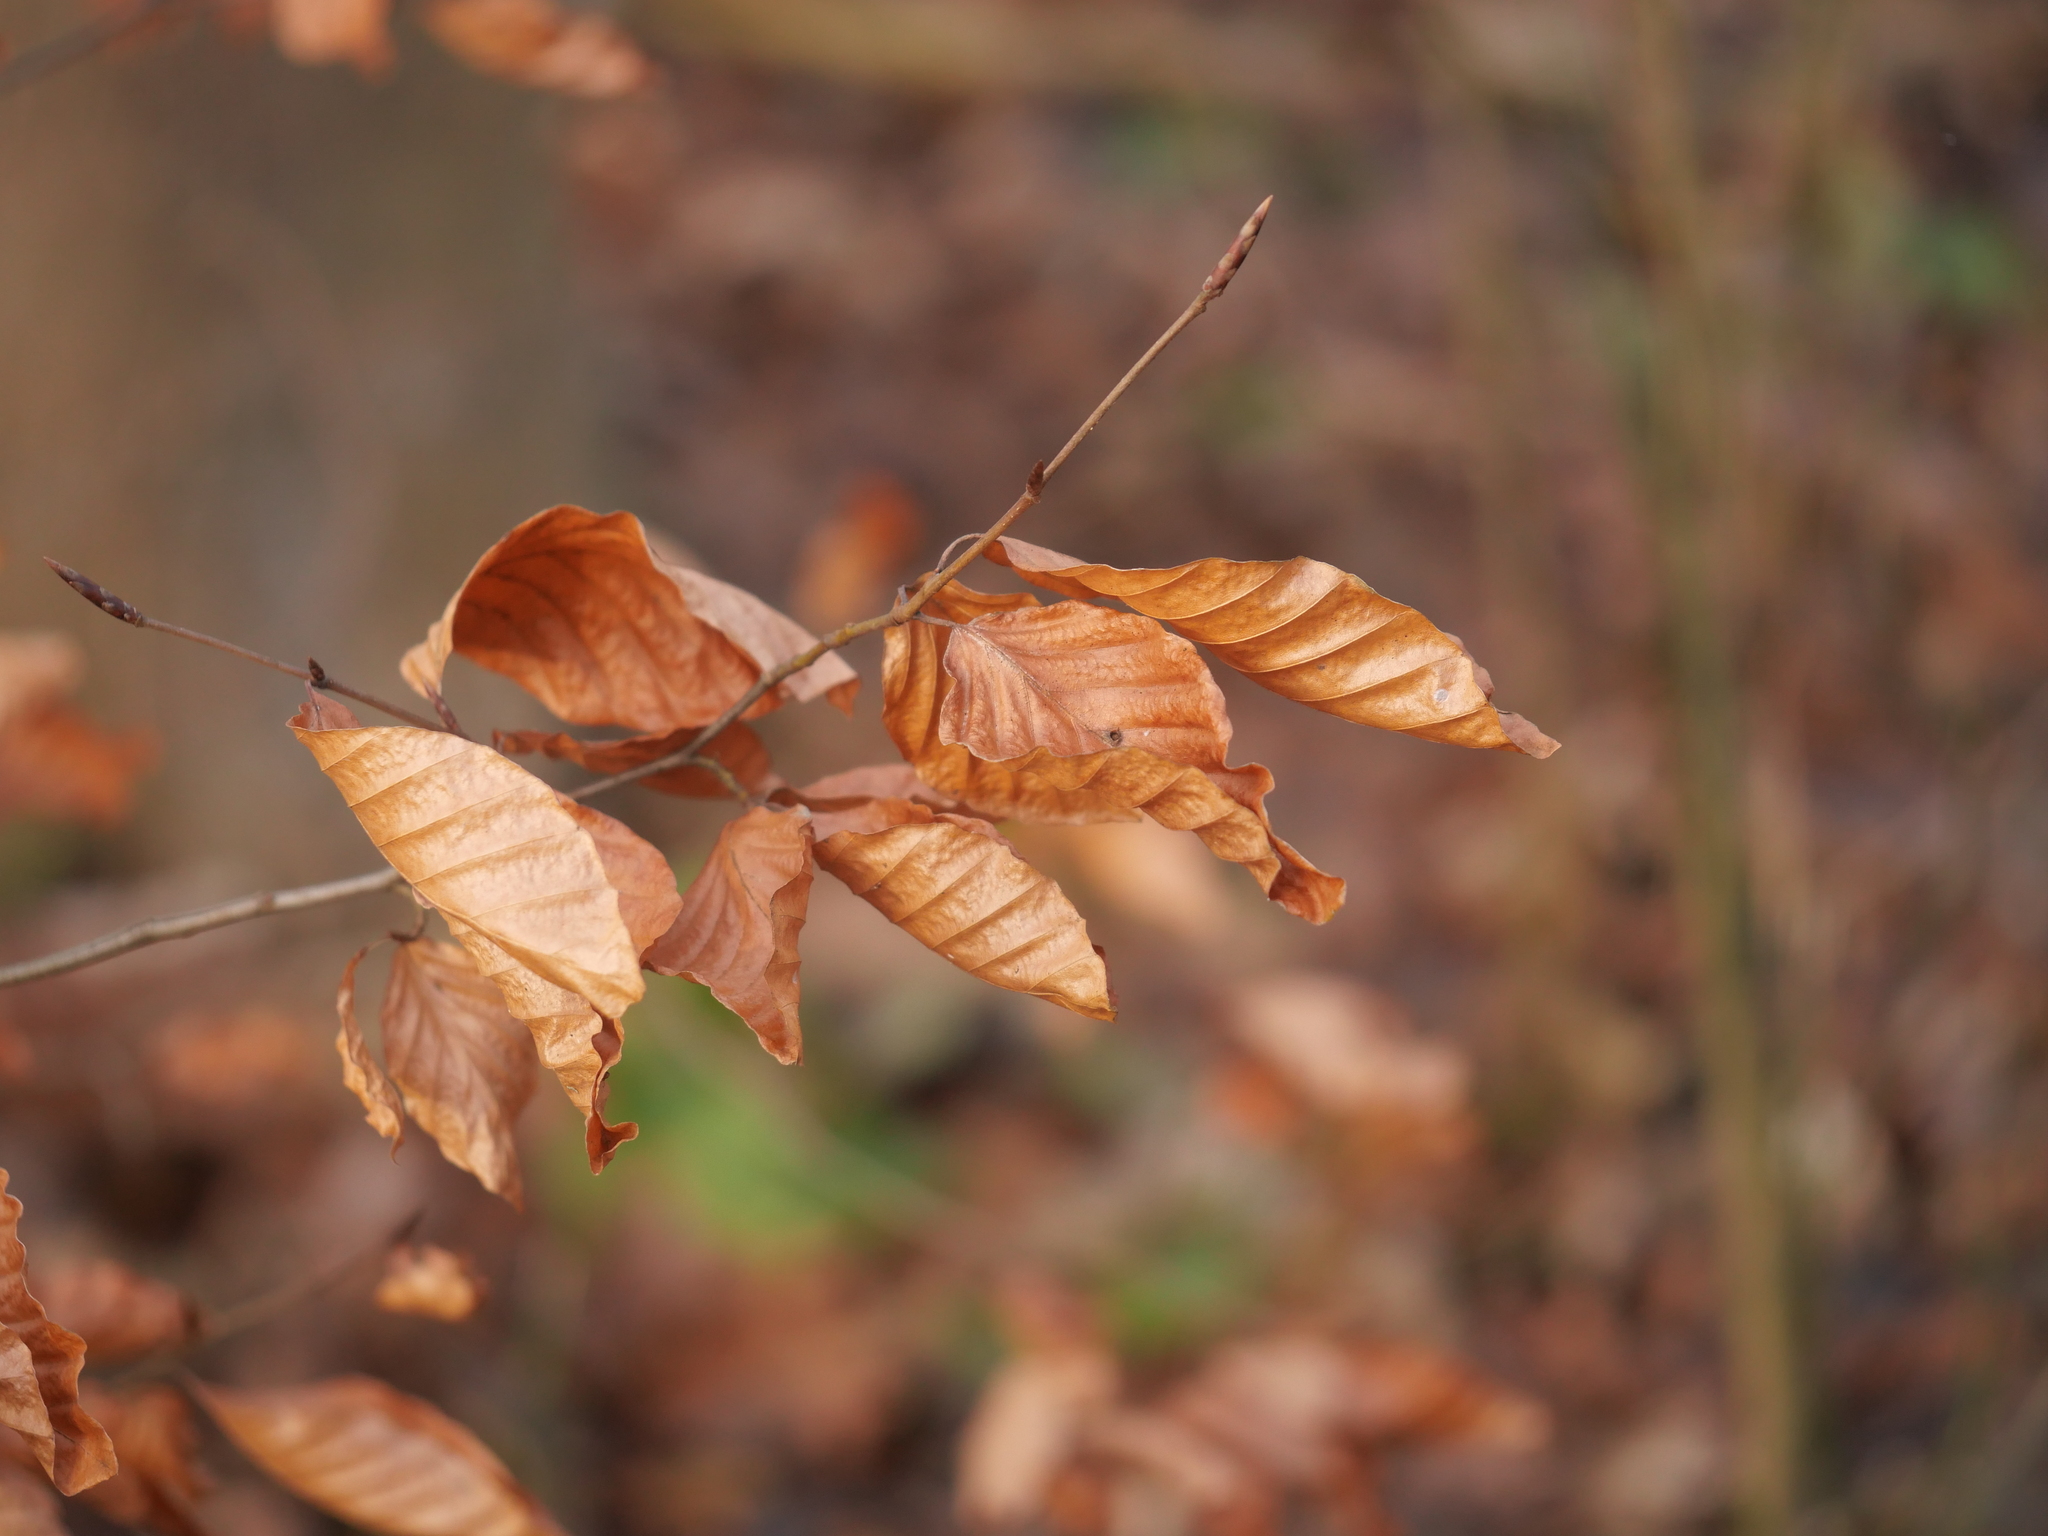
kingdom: Plantae
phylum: Tracheophyta
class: Magnoliopsida
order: Fagales
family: Fagaceae
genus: Fagus
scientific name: Fagus sylvatica
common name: Beech
